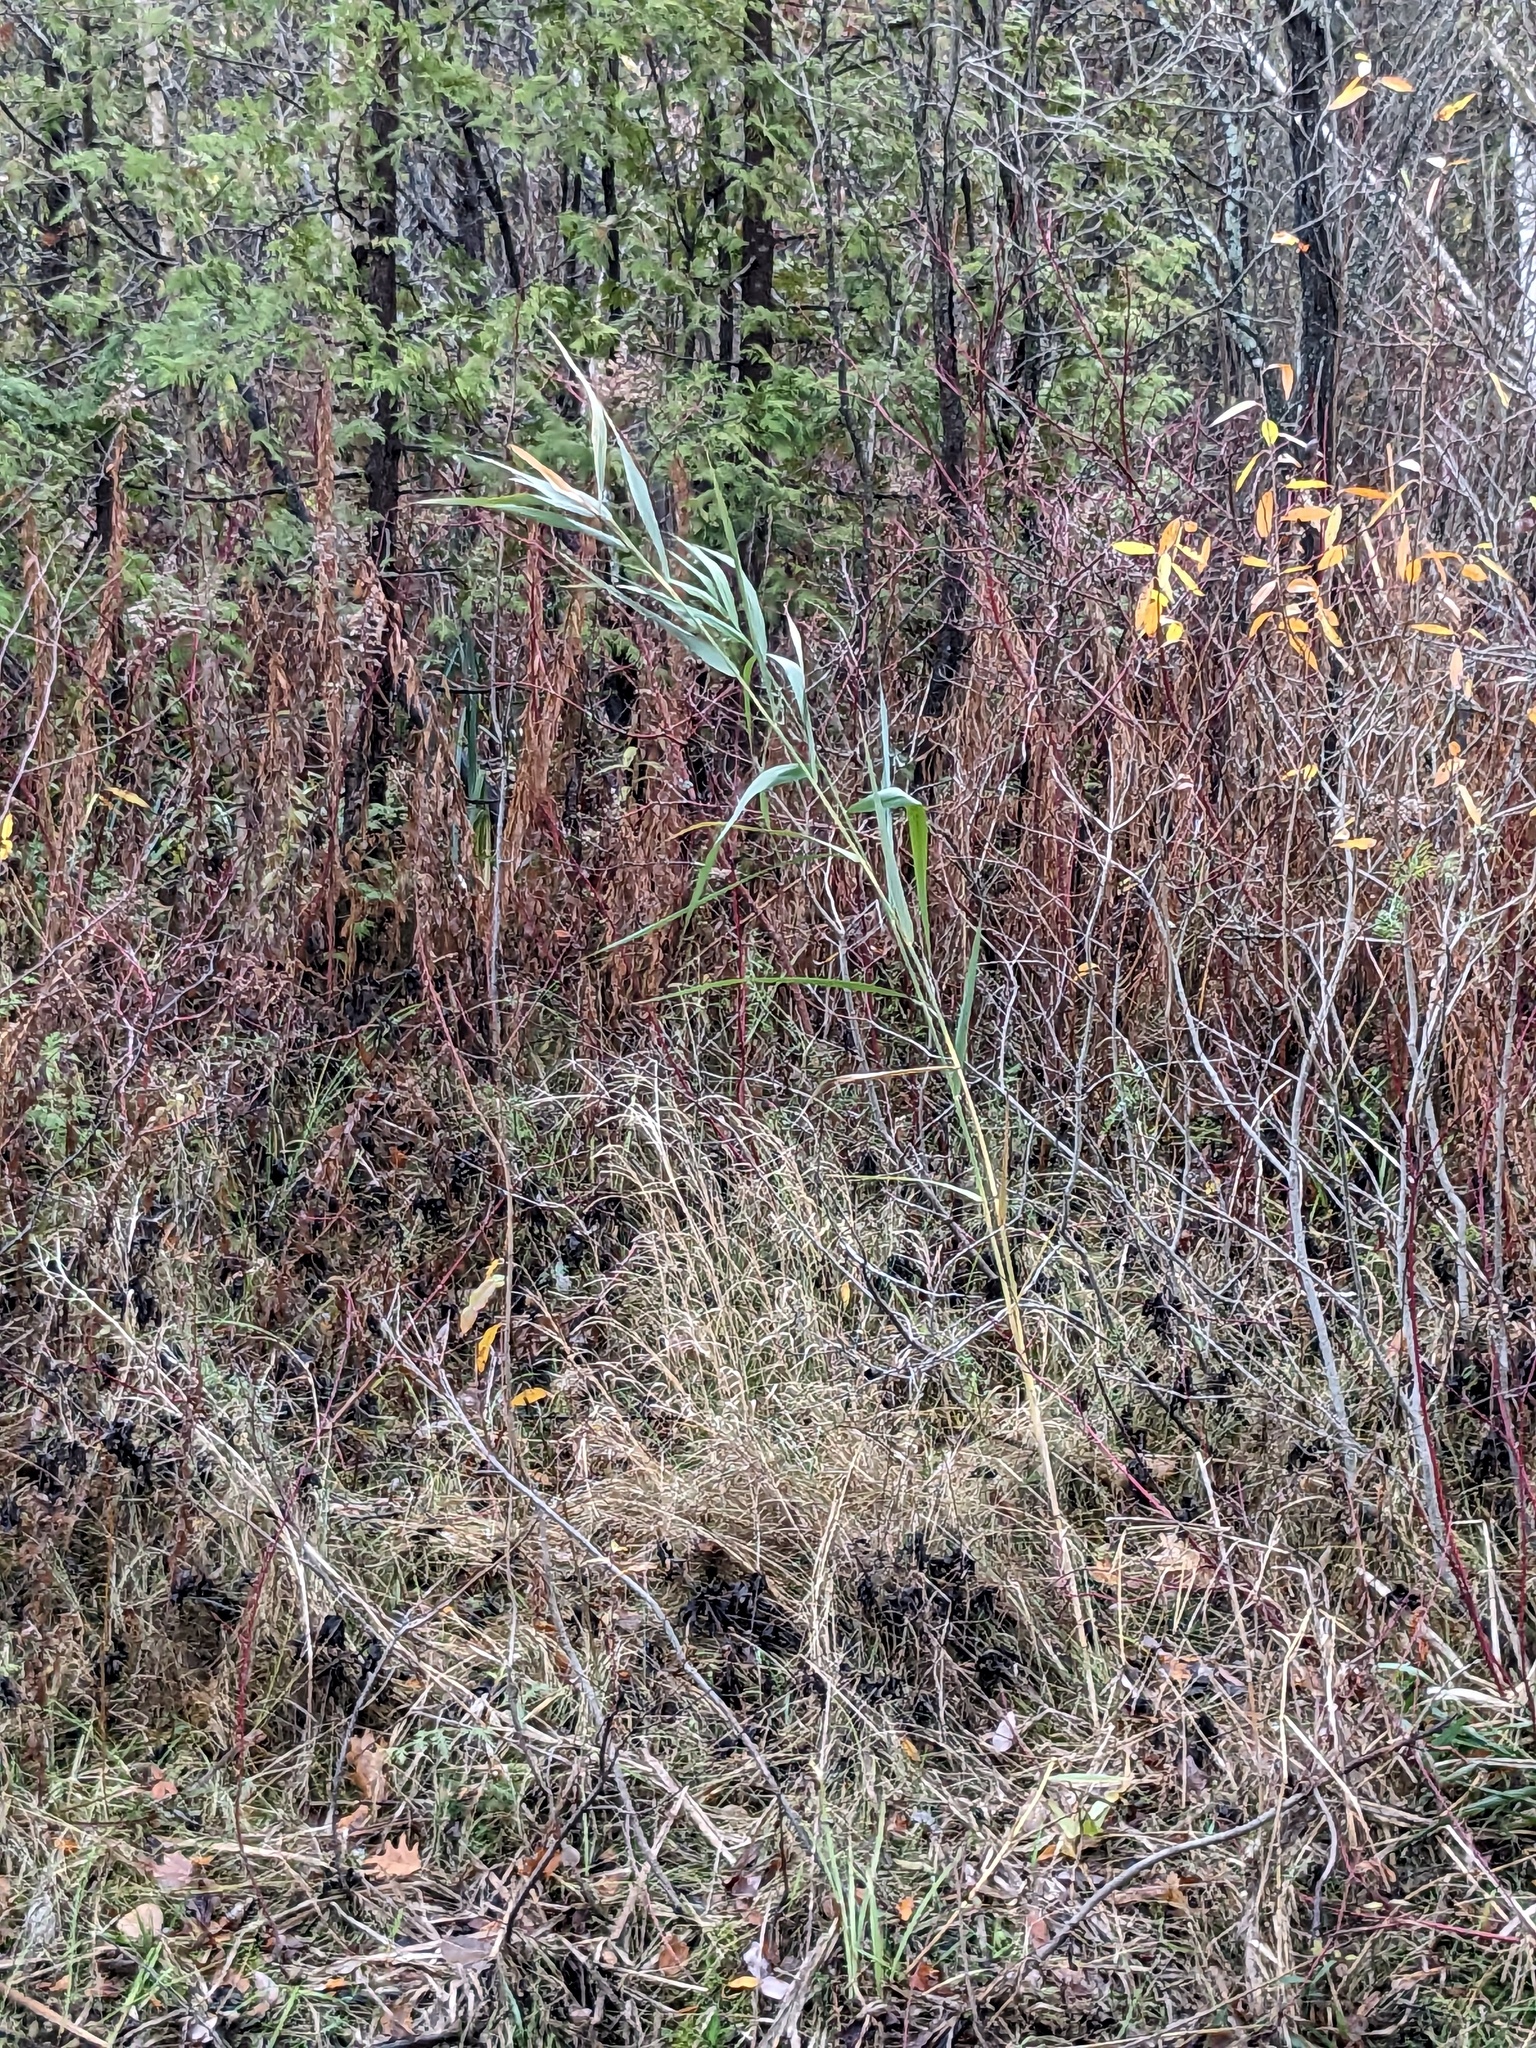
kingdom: Plantae
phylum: Tracheophyta
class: Liliopsida
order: Poales
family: Poaceae
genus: Phragmites
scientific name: Phragmites australis
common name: Common reed
